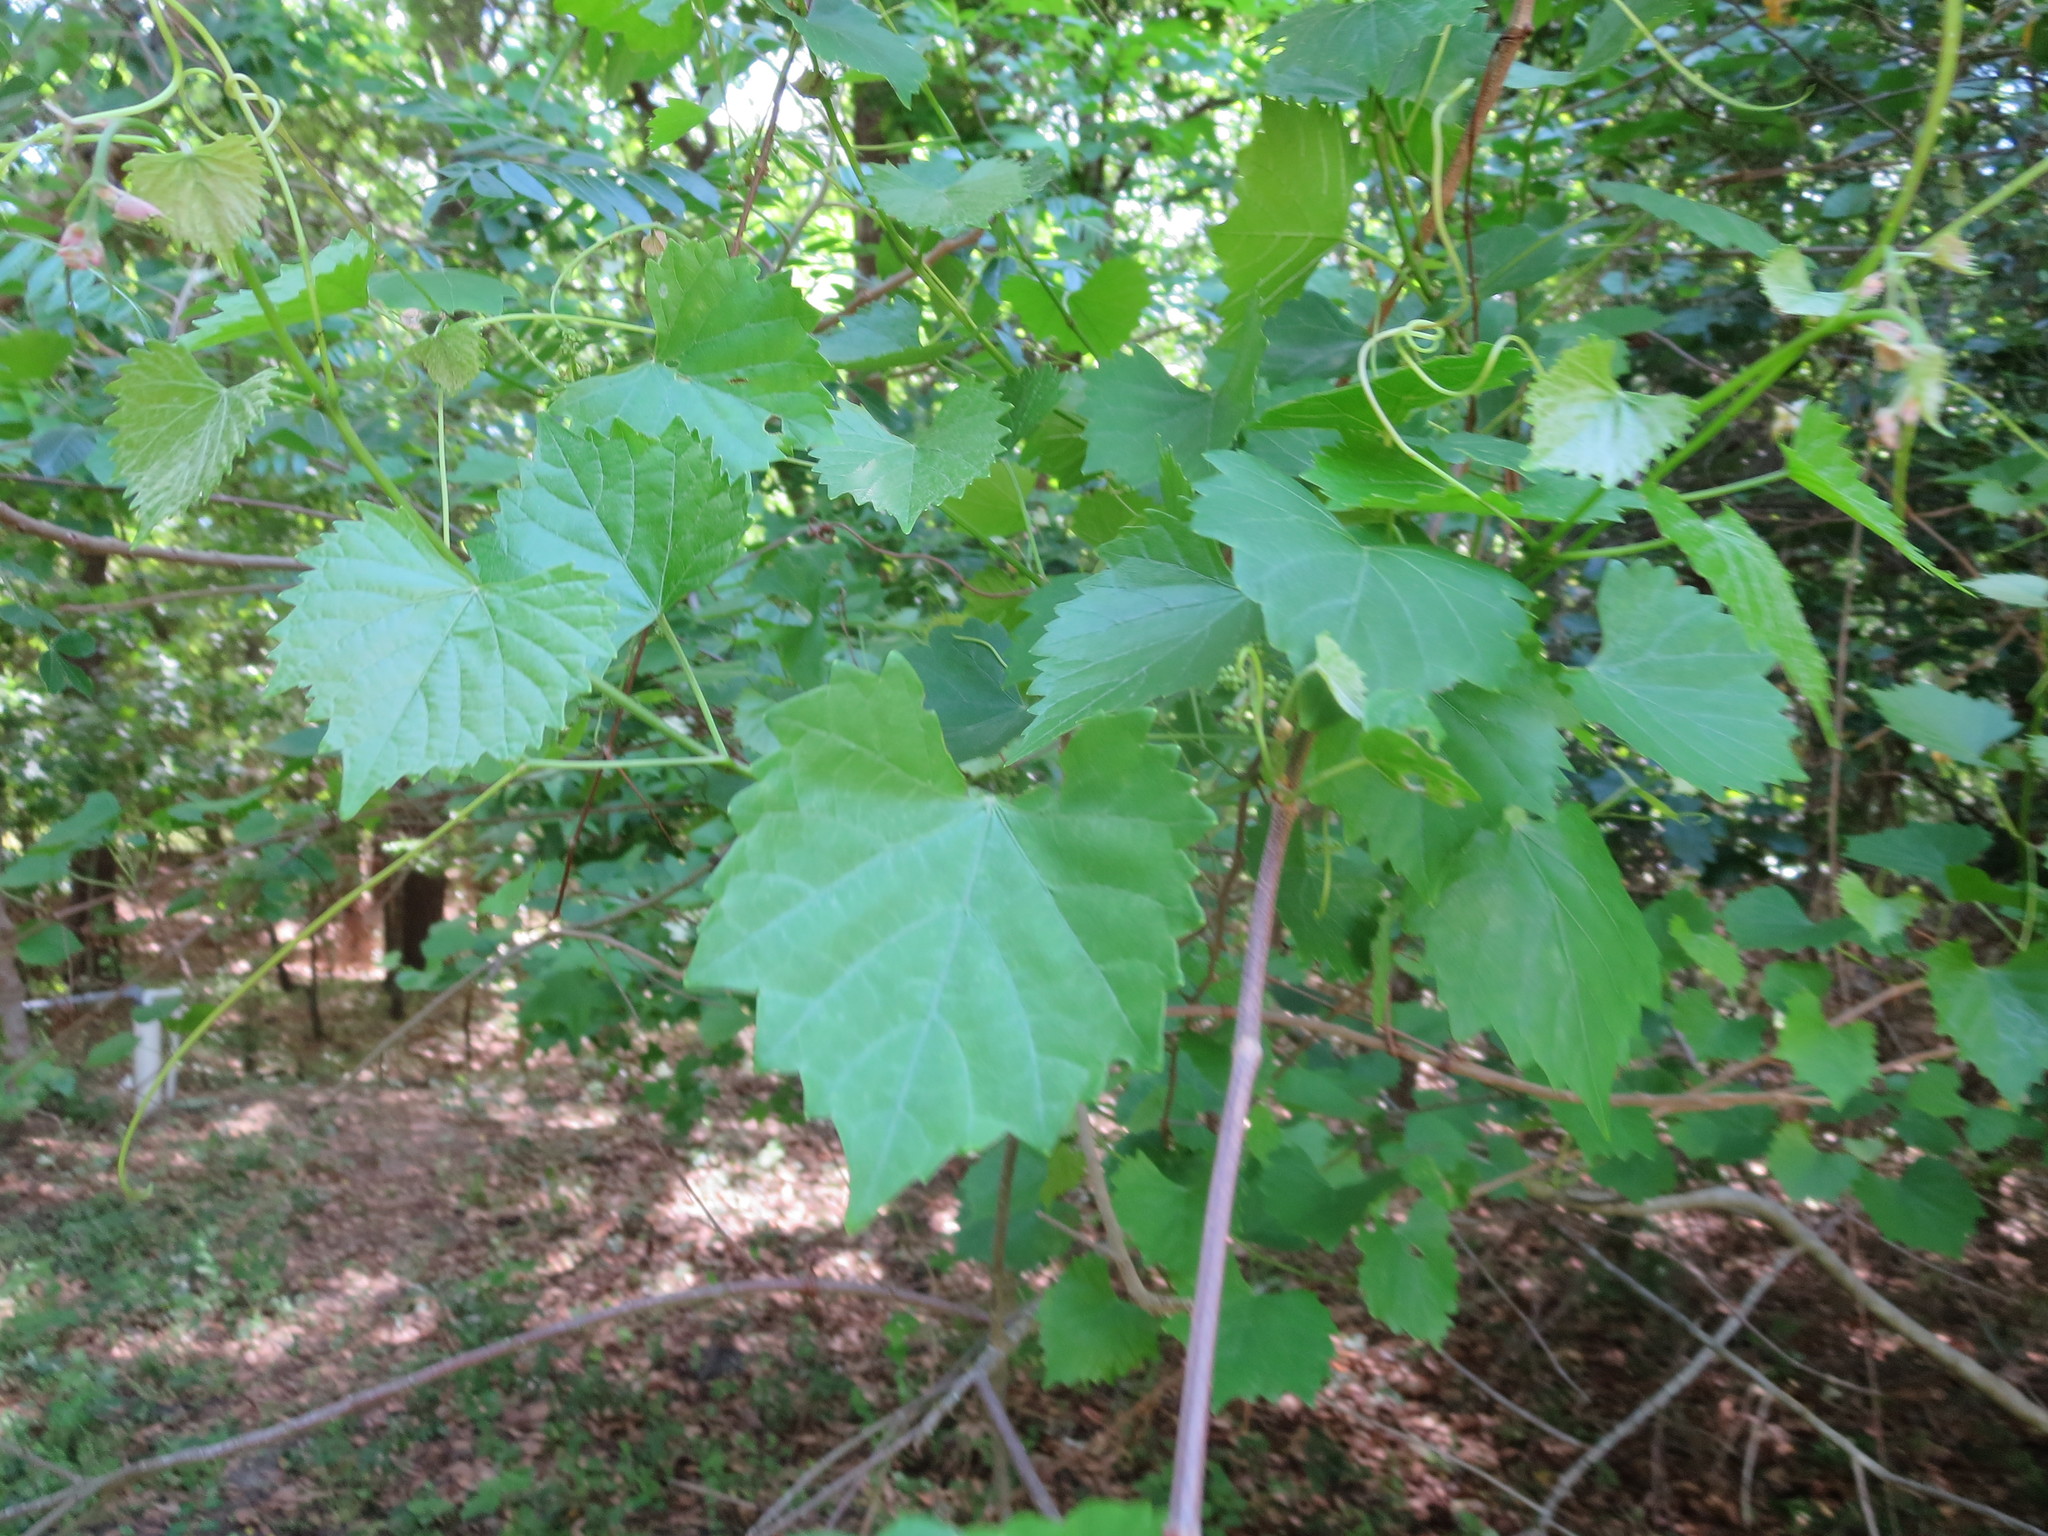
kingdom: Plantae
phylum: Tracheophyta
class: Magnoliopsida
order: Vitales
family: Vitaceae
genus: Vitis
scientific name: Vitis rotundifolia
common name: Muscadine grape
